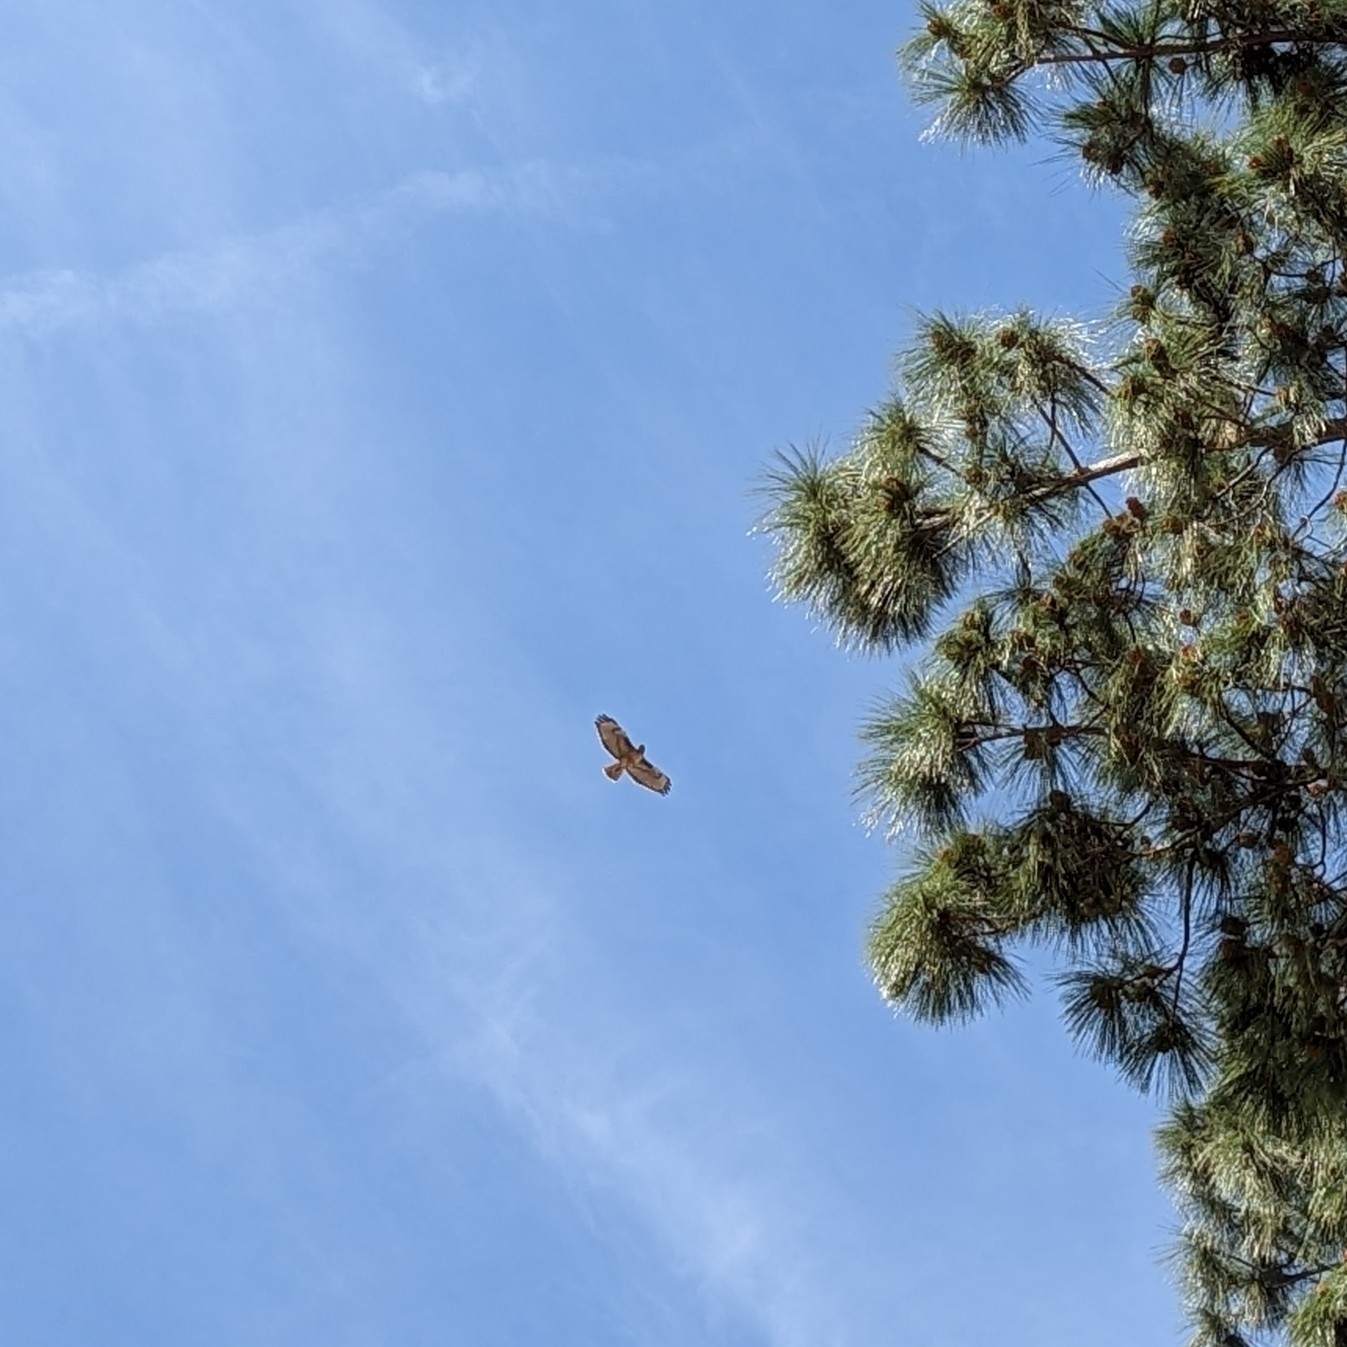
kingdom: Animalia
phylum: Chordata
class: Aves
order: Accipitriformes
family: Accipitridae
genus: Buteo
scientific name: Buteo jamaicensis
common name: Red-tailed hawk
